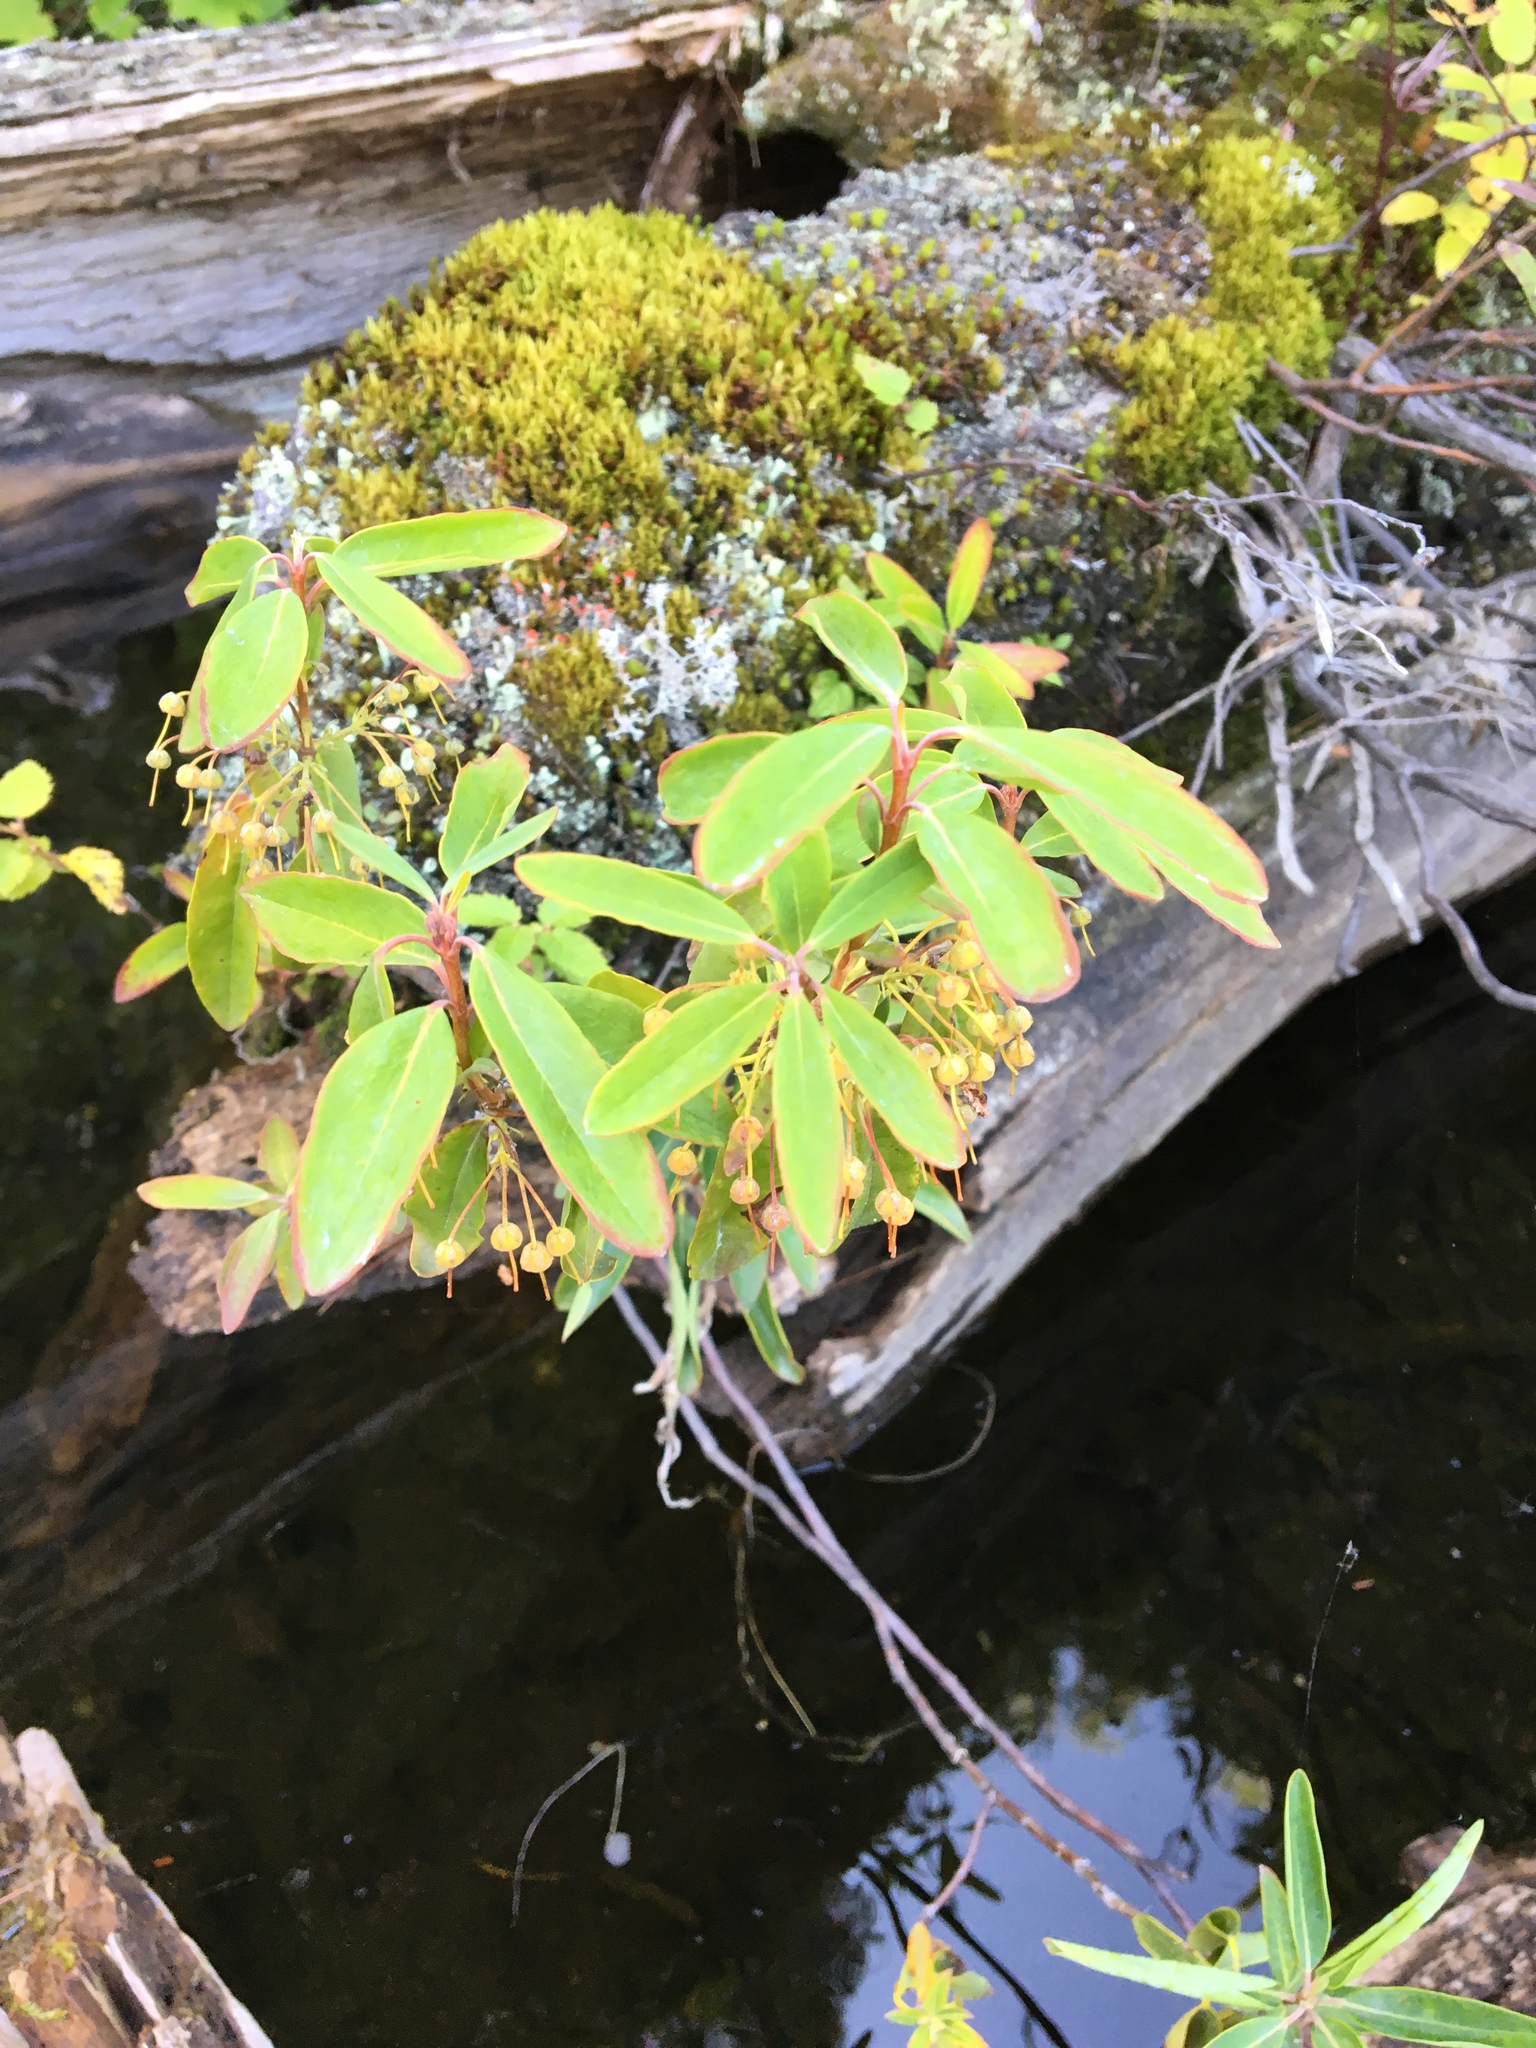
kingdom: Plantae
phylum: Tracheophyta
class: Magnoliopsida
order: Ericales
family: Ericaceae
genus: Kalmia
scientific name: Kalmia angustifolia
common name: Sheep-laurel
